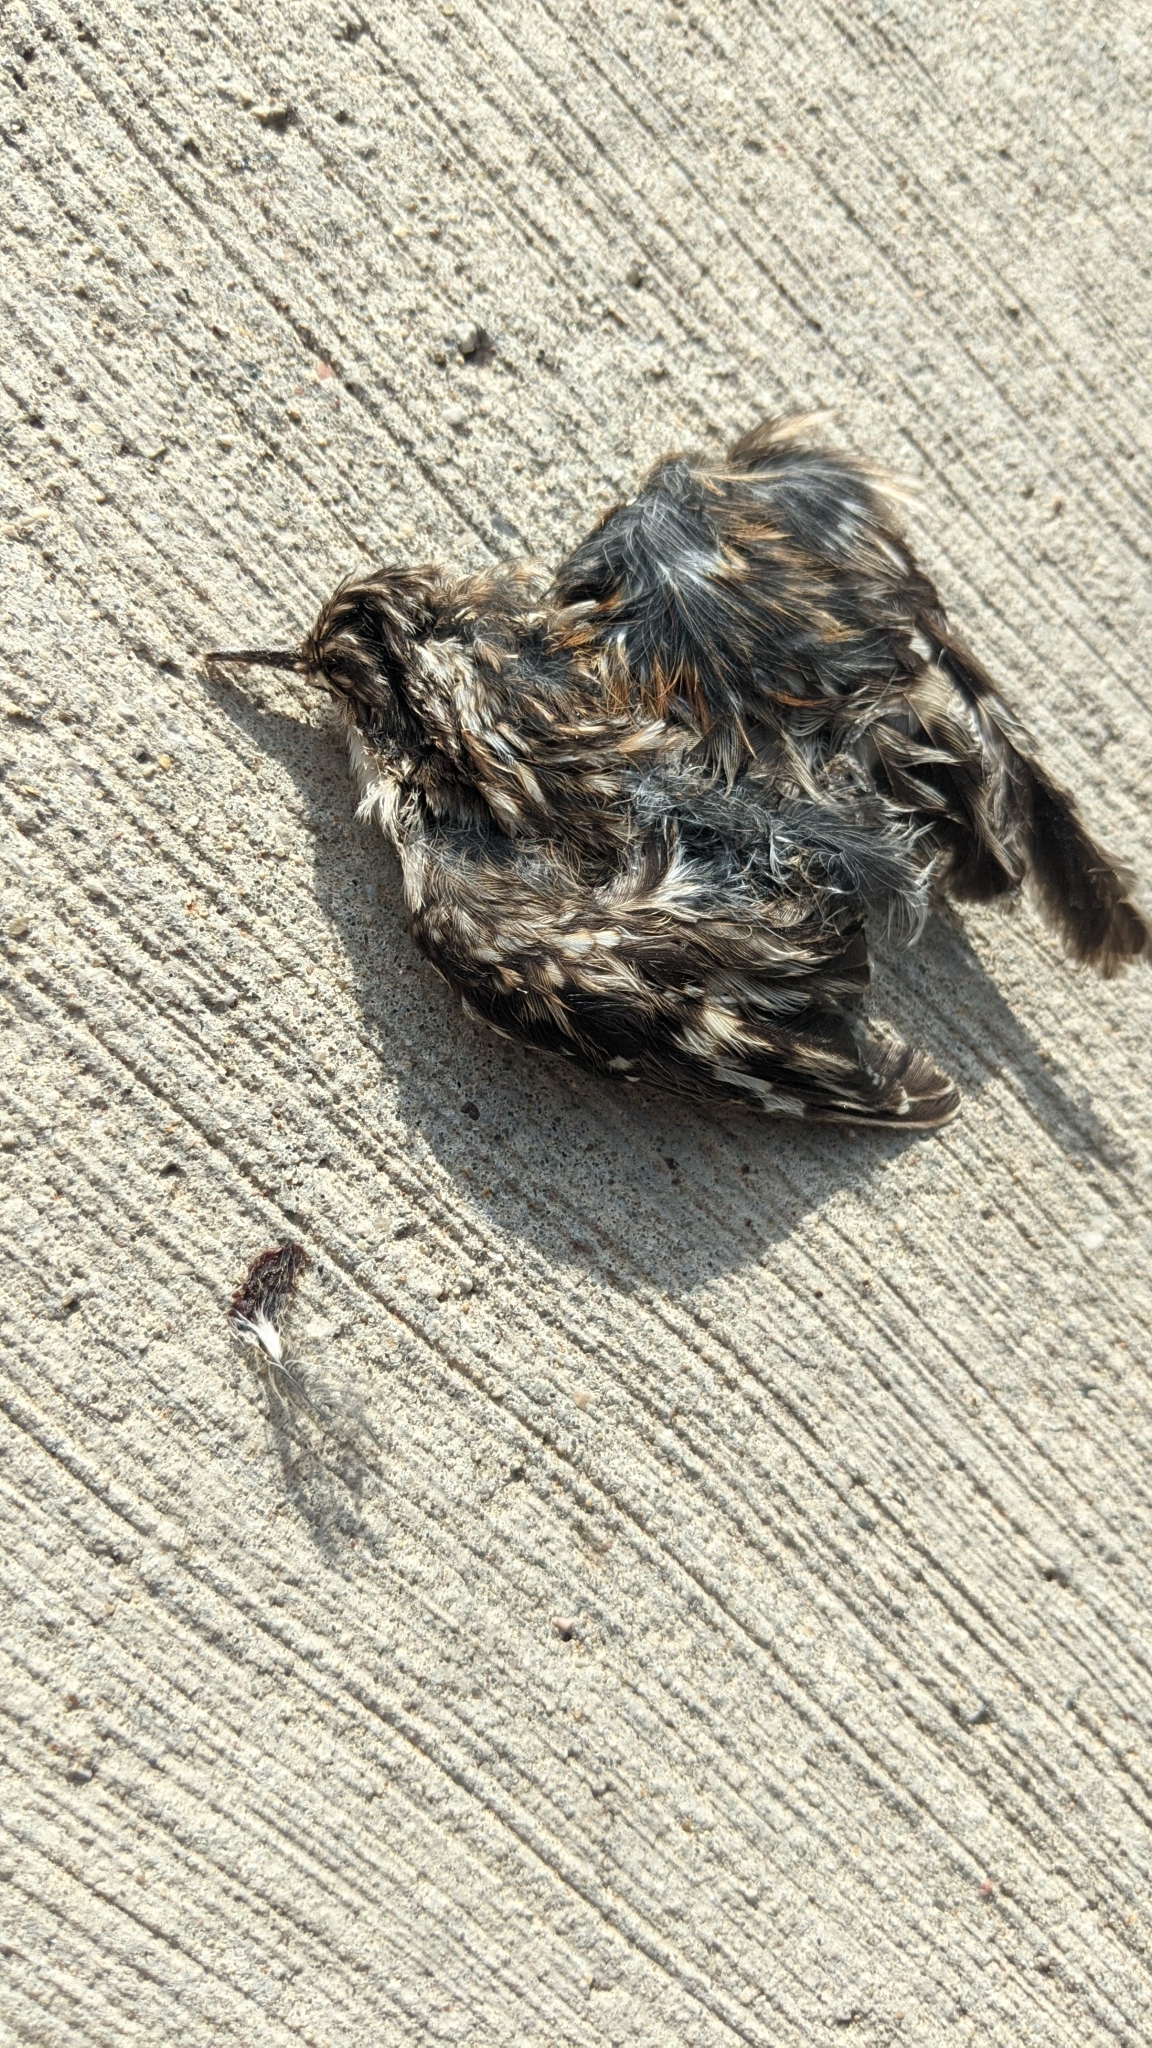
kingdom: Animalia
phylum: Chordata
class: Aves
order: Passeriformes
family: Certhiidae
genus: Certhia
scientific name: Certhia americana
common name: Brown creeper
